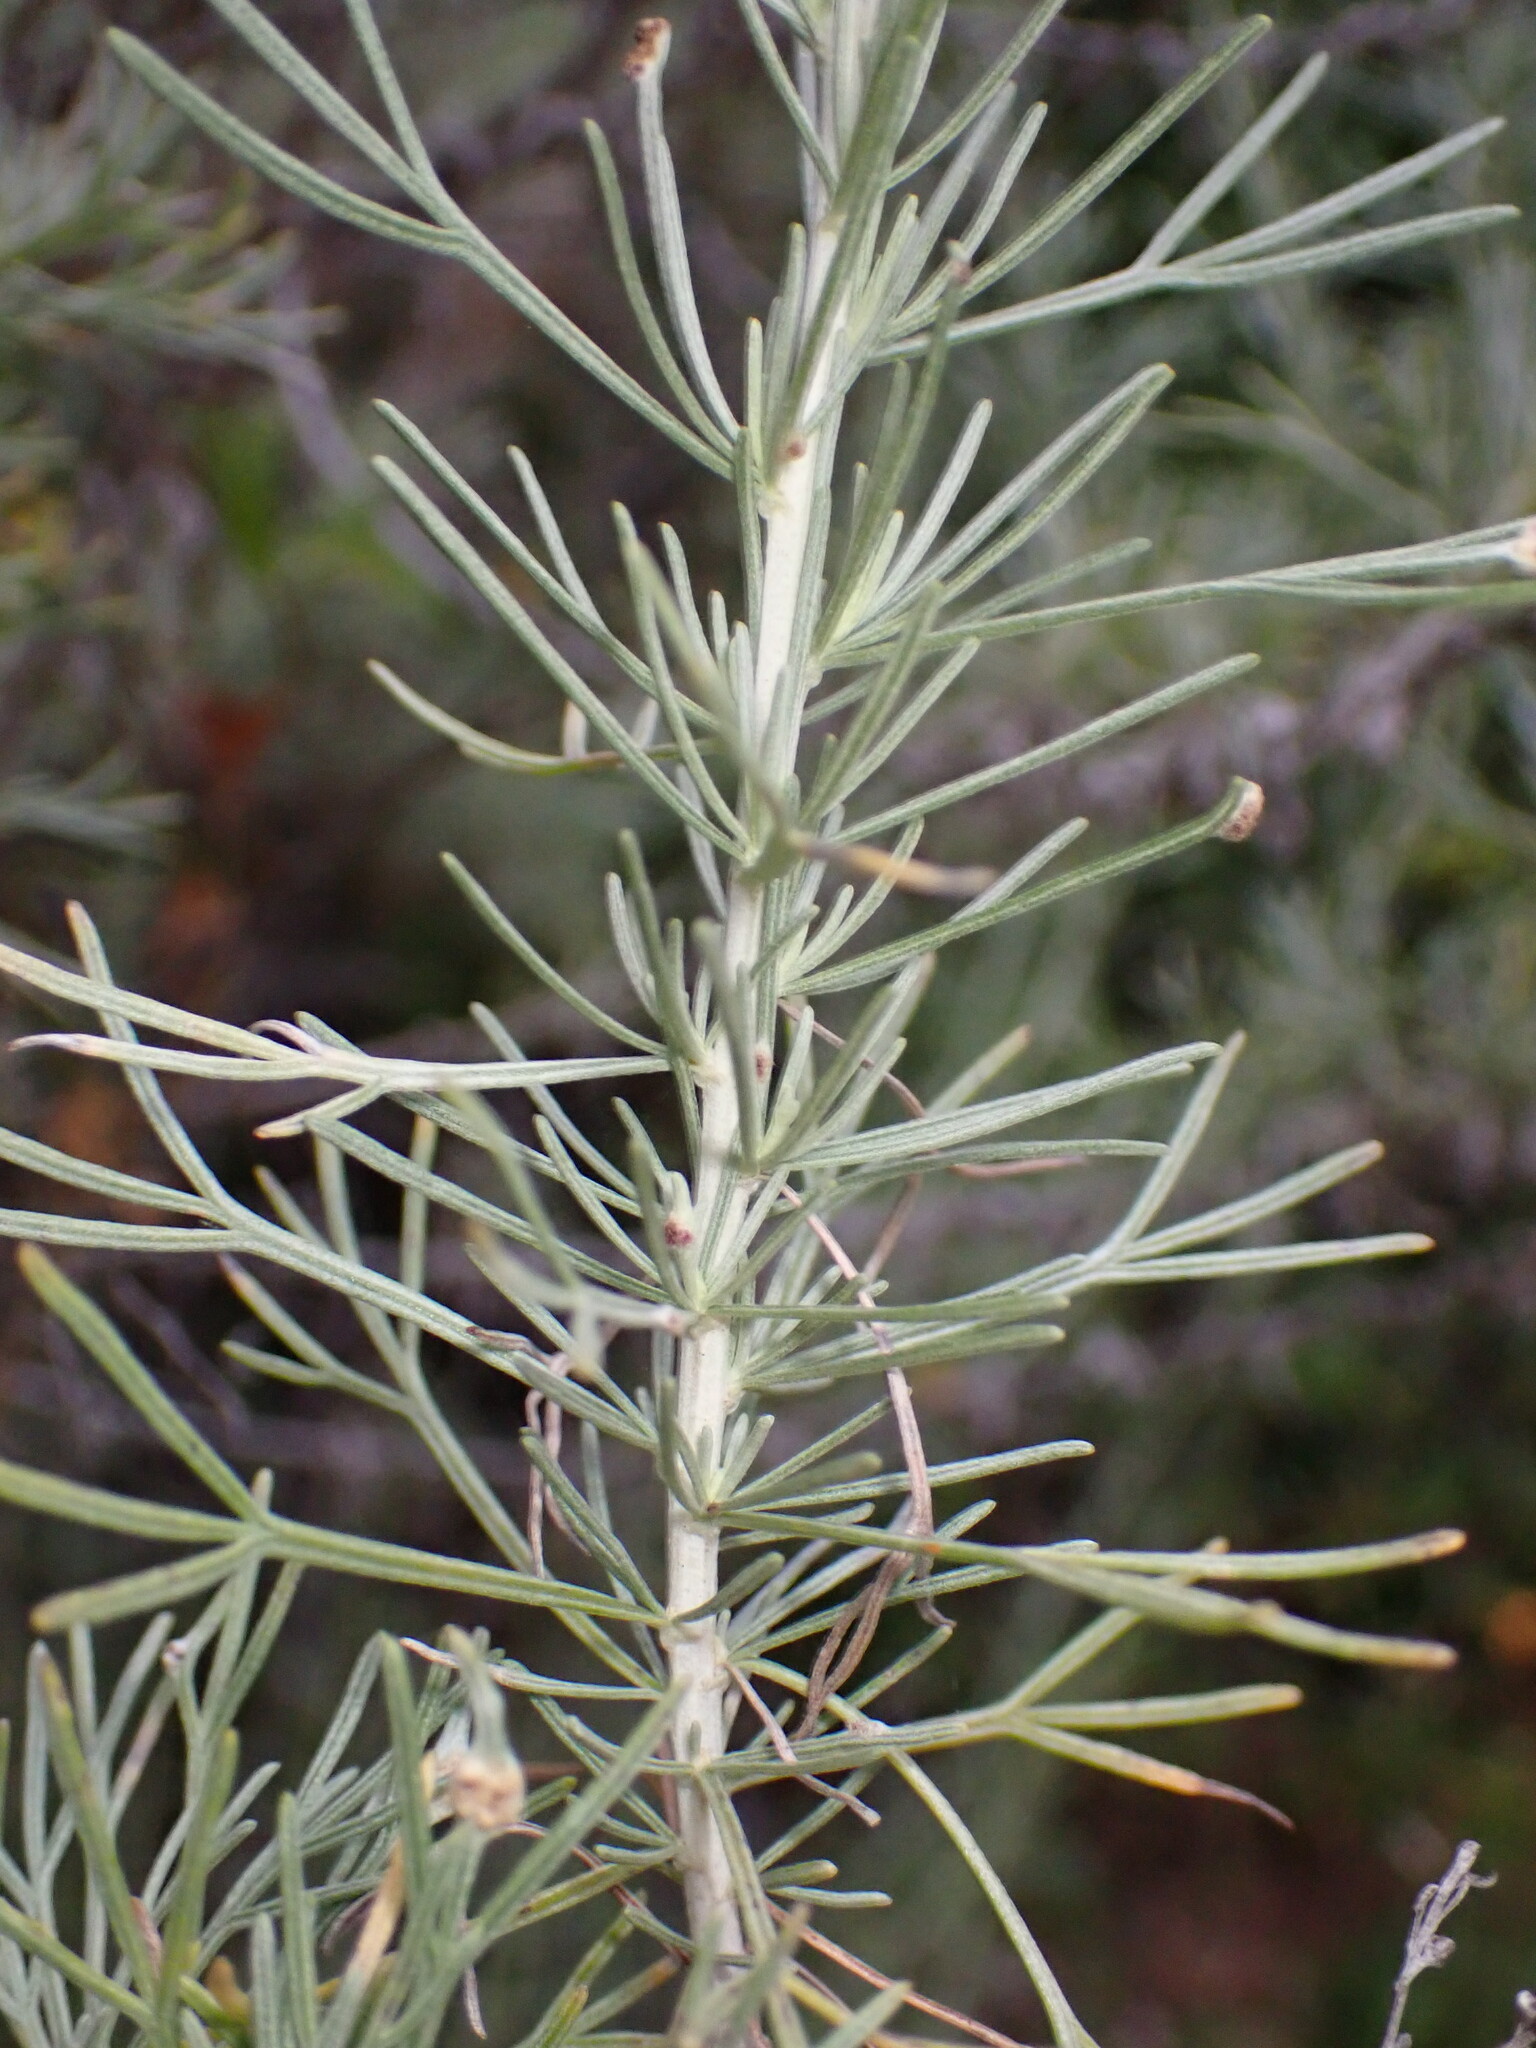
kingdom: Plantae
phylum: Tracheophyta
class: Magnoliopsida
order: Asterales
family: Asteraceae
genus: Artemisia
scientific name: Artemisia californica
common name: California sagebrush
